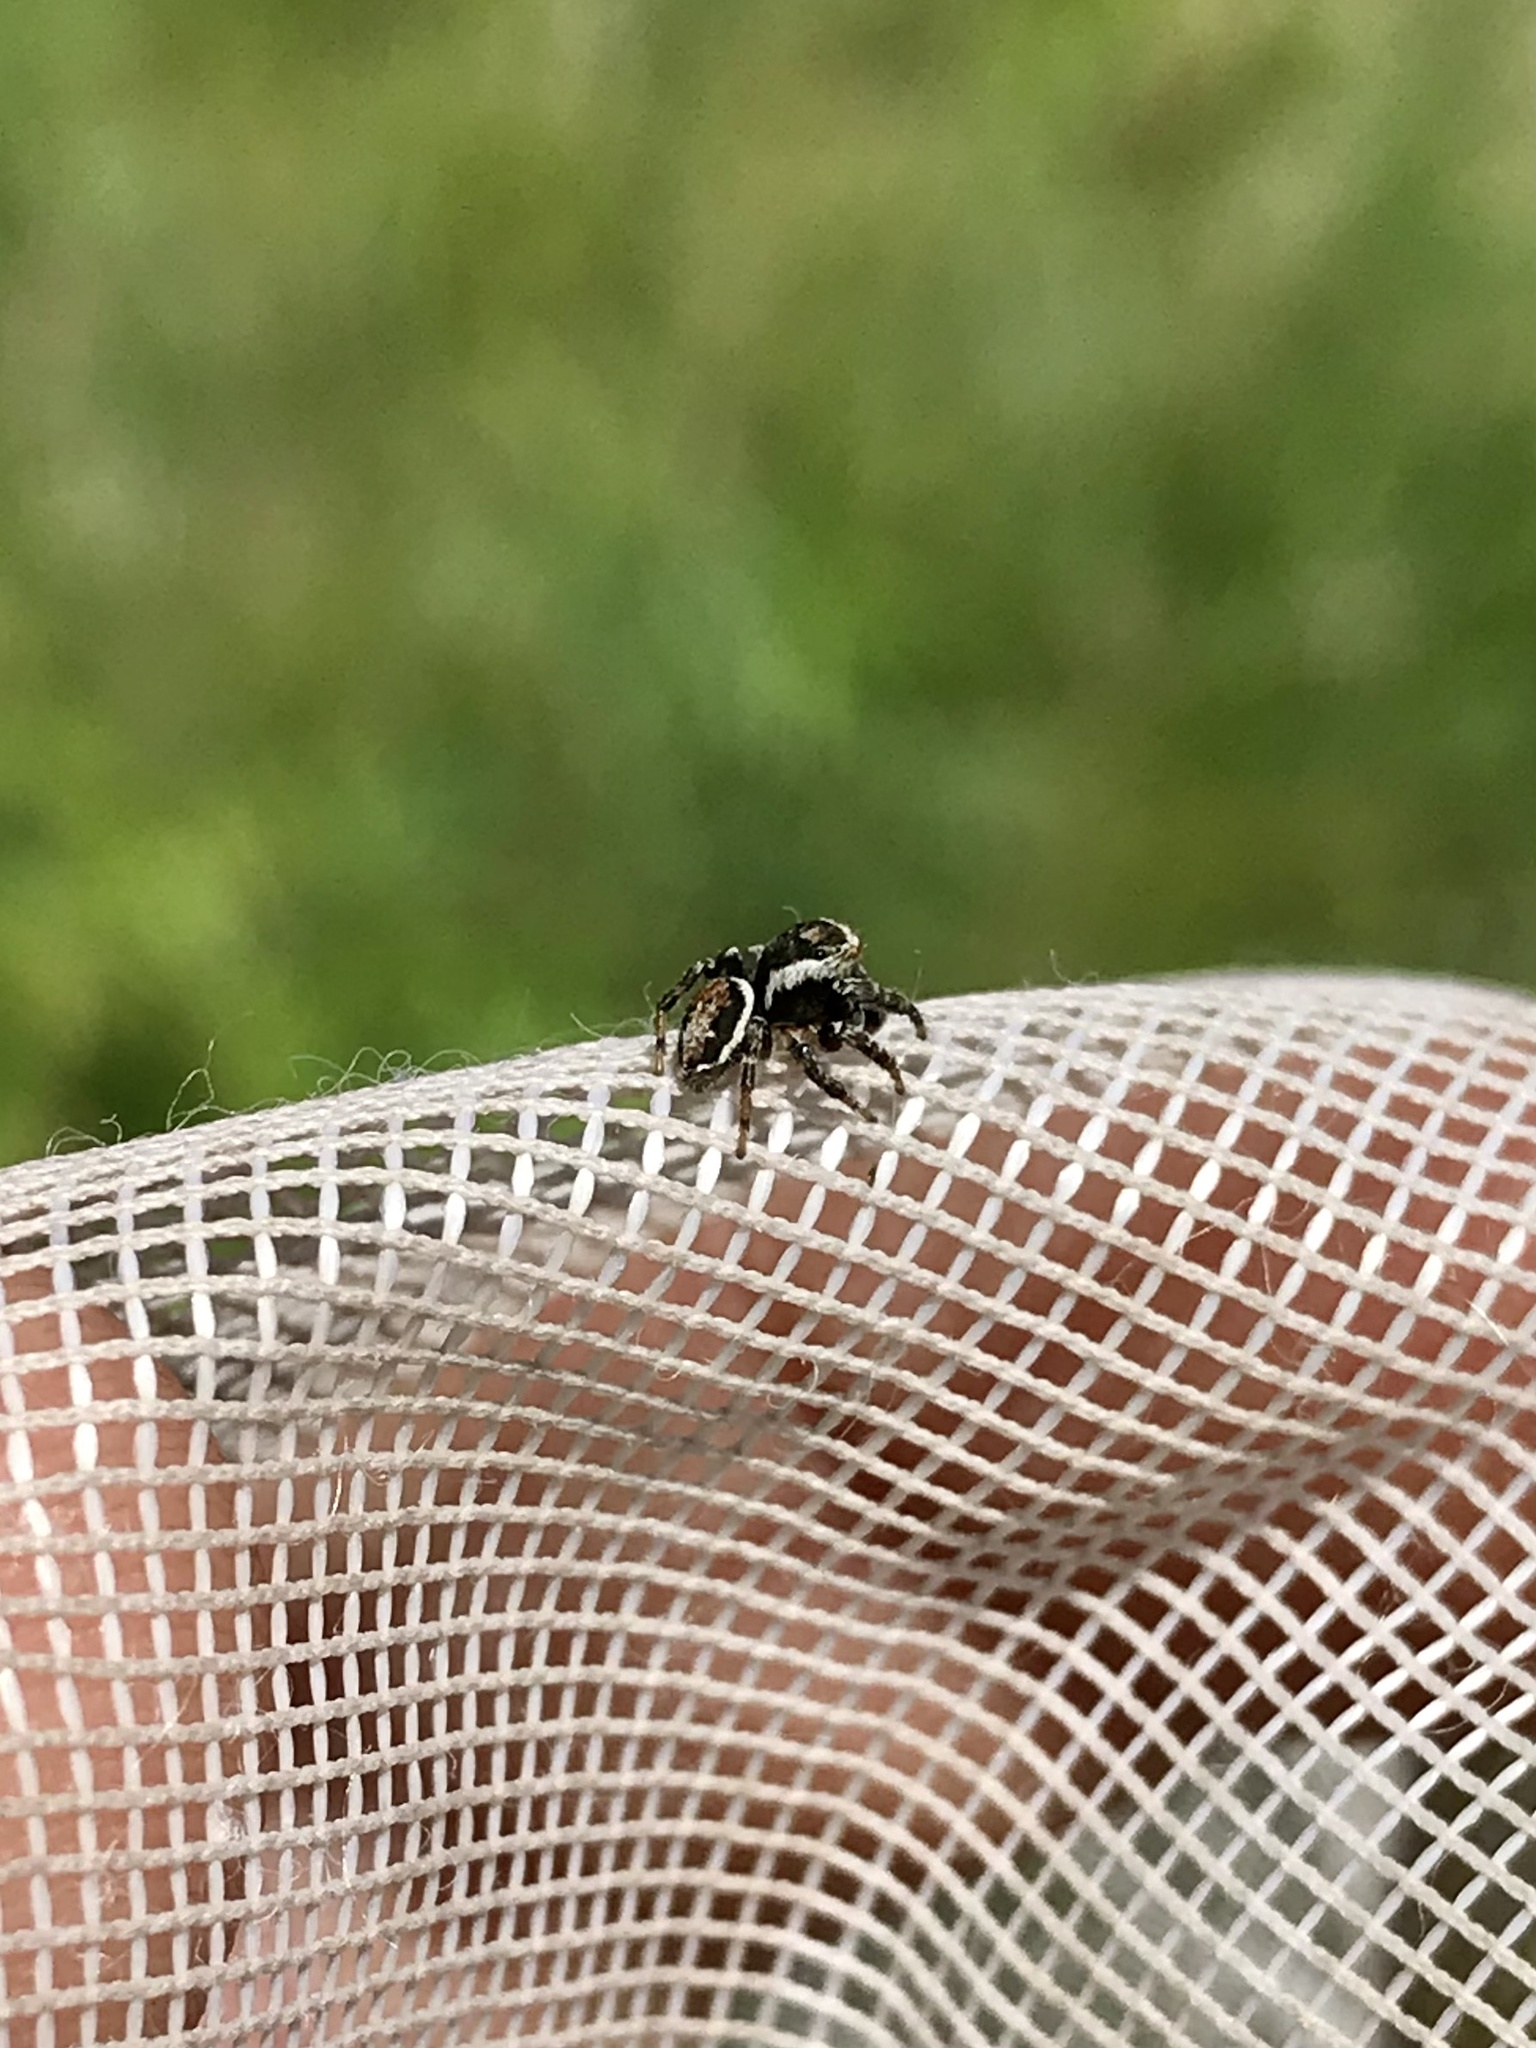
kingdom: Animalia
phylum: Arthropoda
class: Arachnida
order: Araneae
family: Salticidae
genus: Evarcha
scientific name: Evarcha hoyi
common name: Hoy's jumping spider
